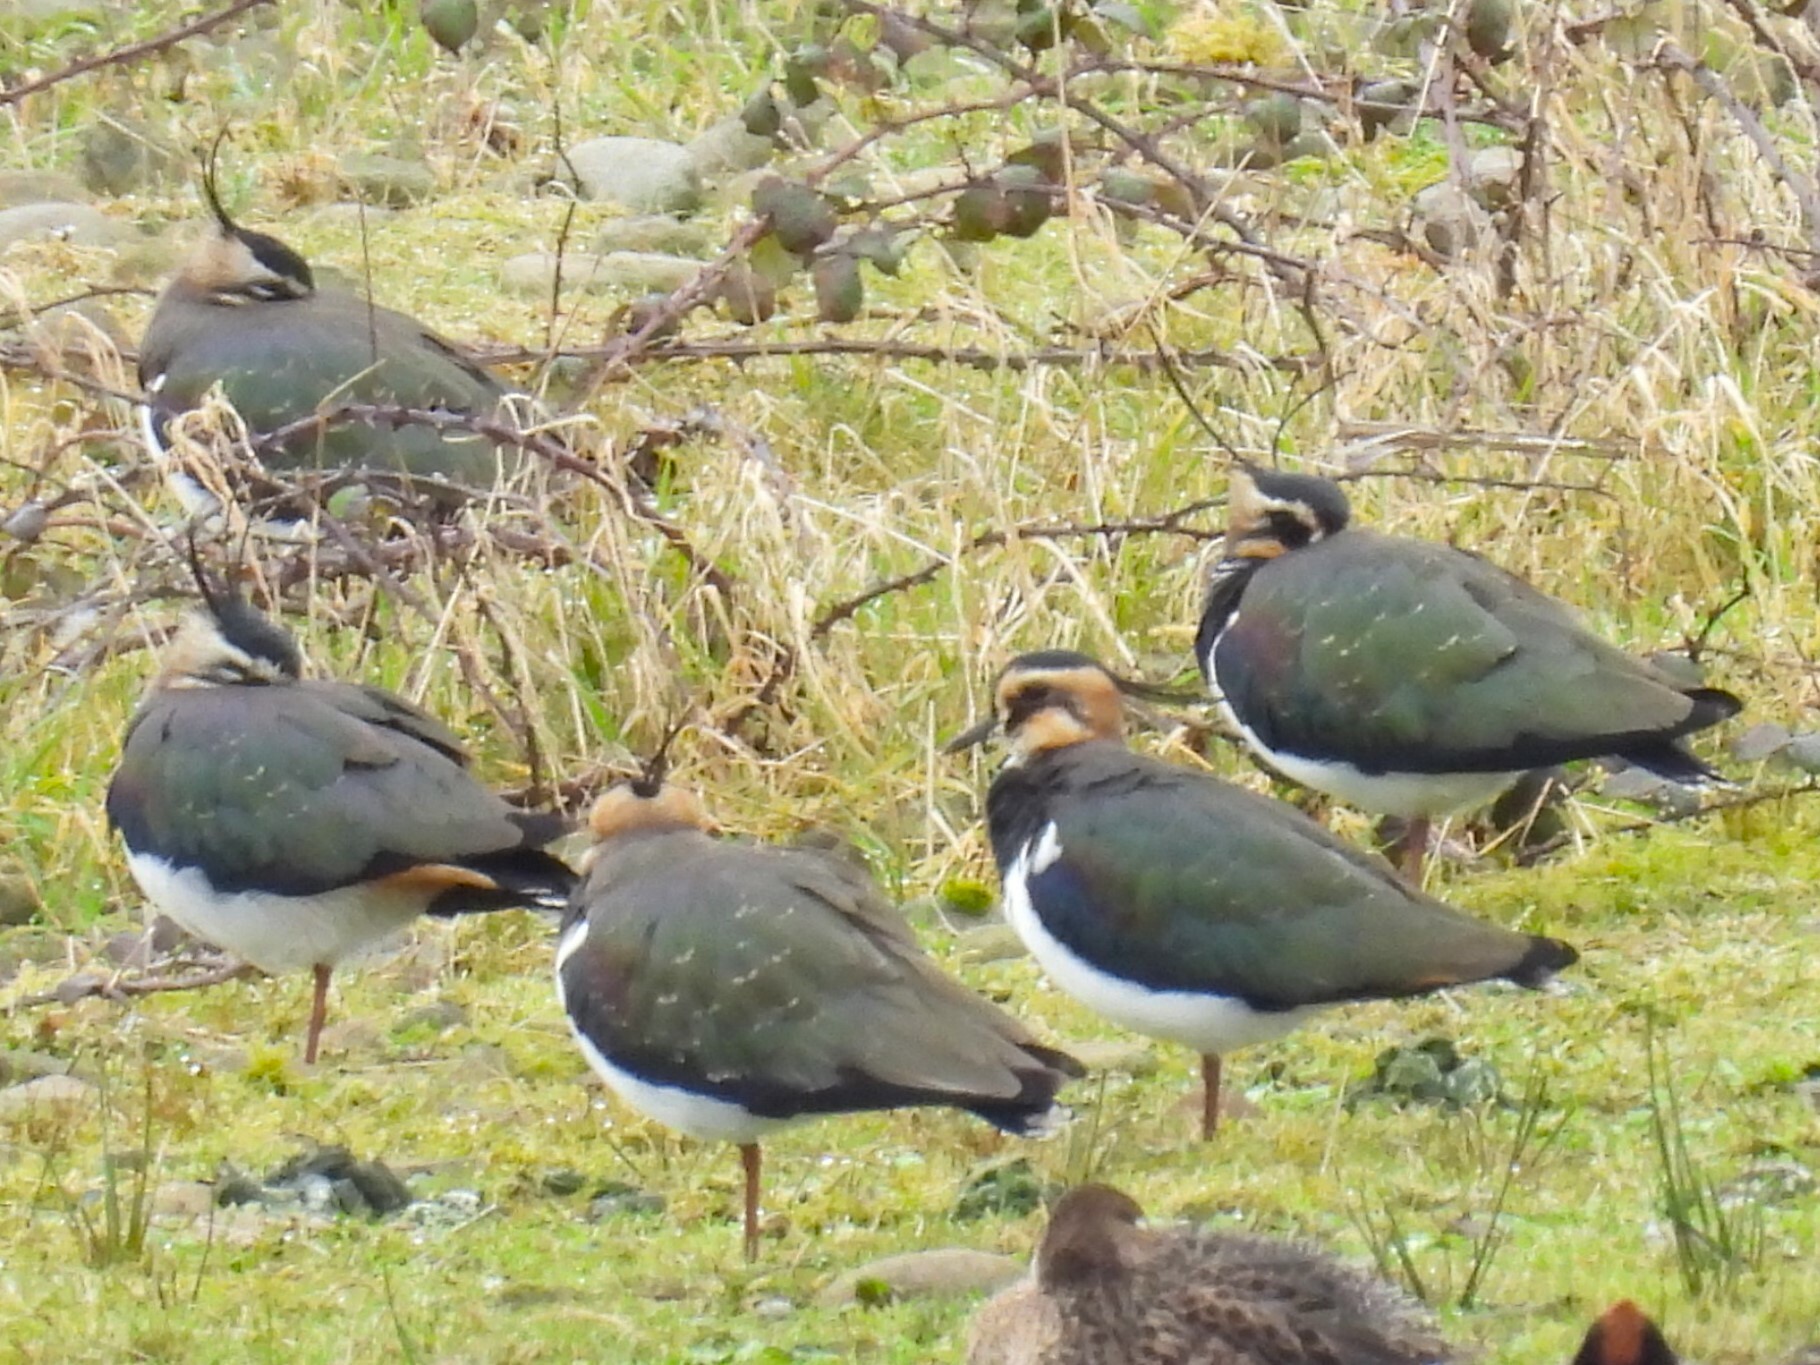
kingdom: Animalia
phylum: Chordata
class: Aves
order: Charadriiformes
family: Charadriidae
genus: Vanellus
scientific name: Vanellus vanellus
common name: Northern lapwing
